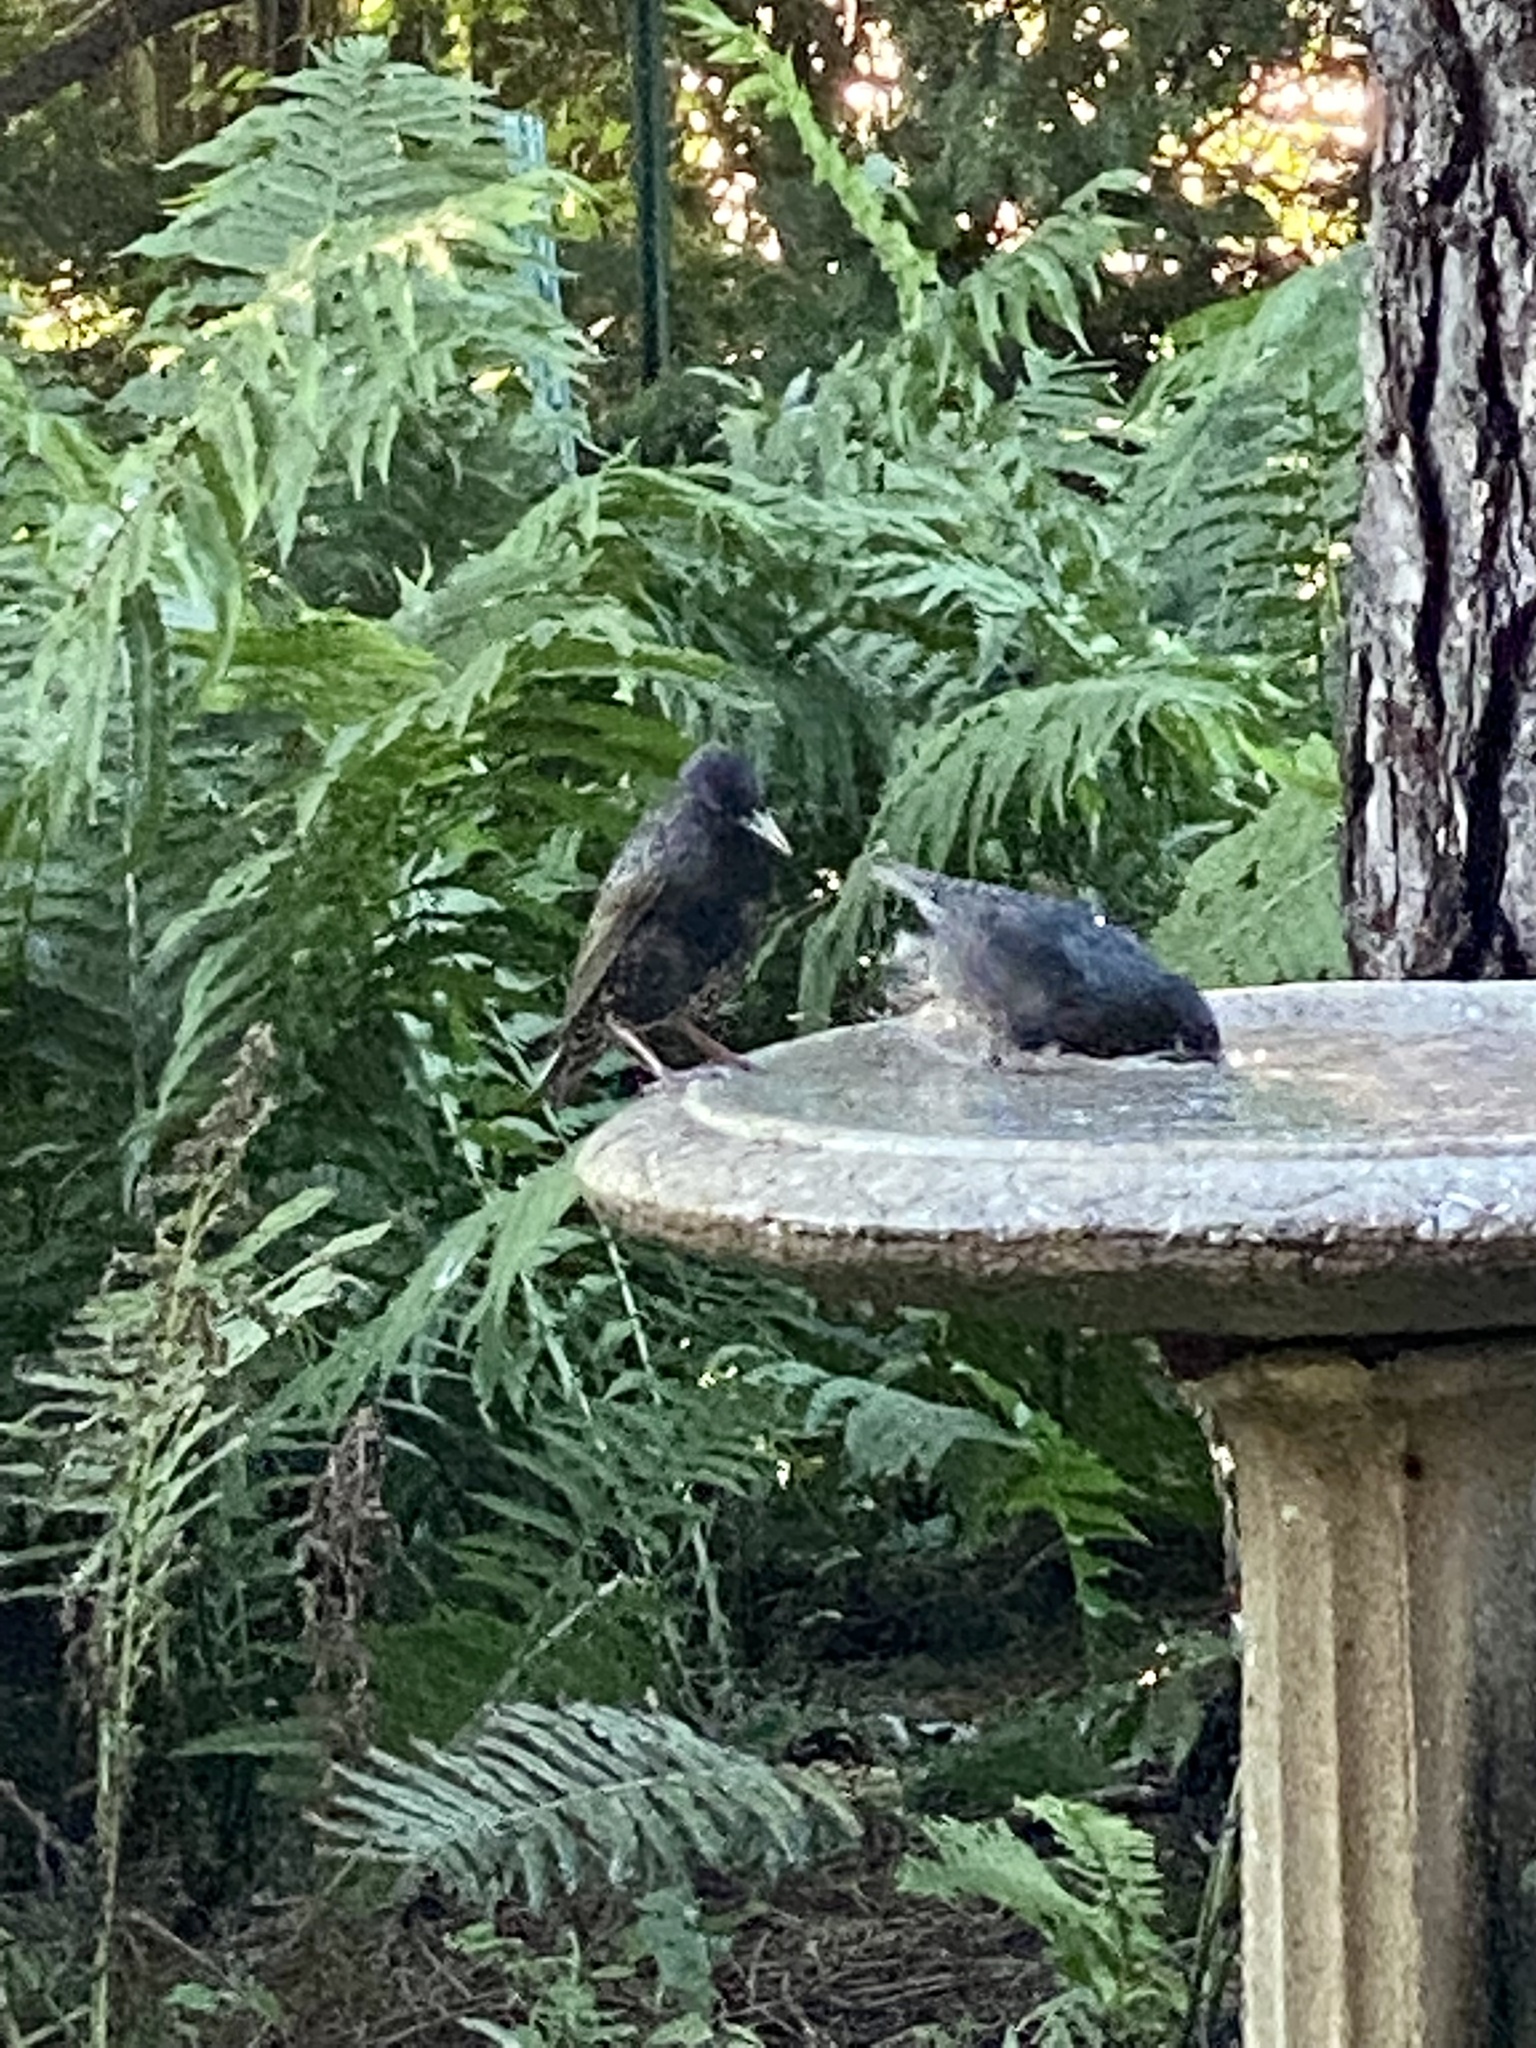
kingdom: Animalia
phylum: Chordata
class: Aves
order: Passeriformes
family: Sturnidae
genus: Sturnus
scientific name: Sturnus vulgaris
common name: Common starling
